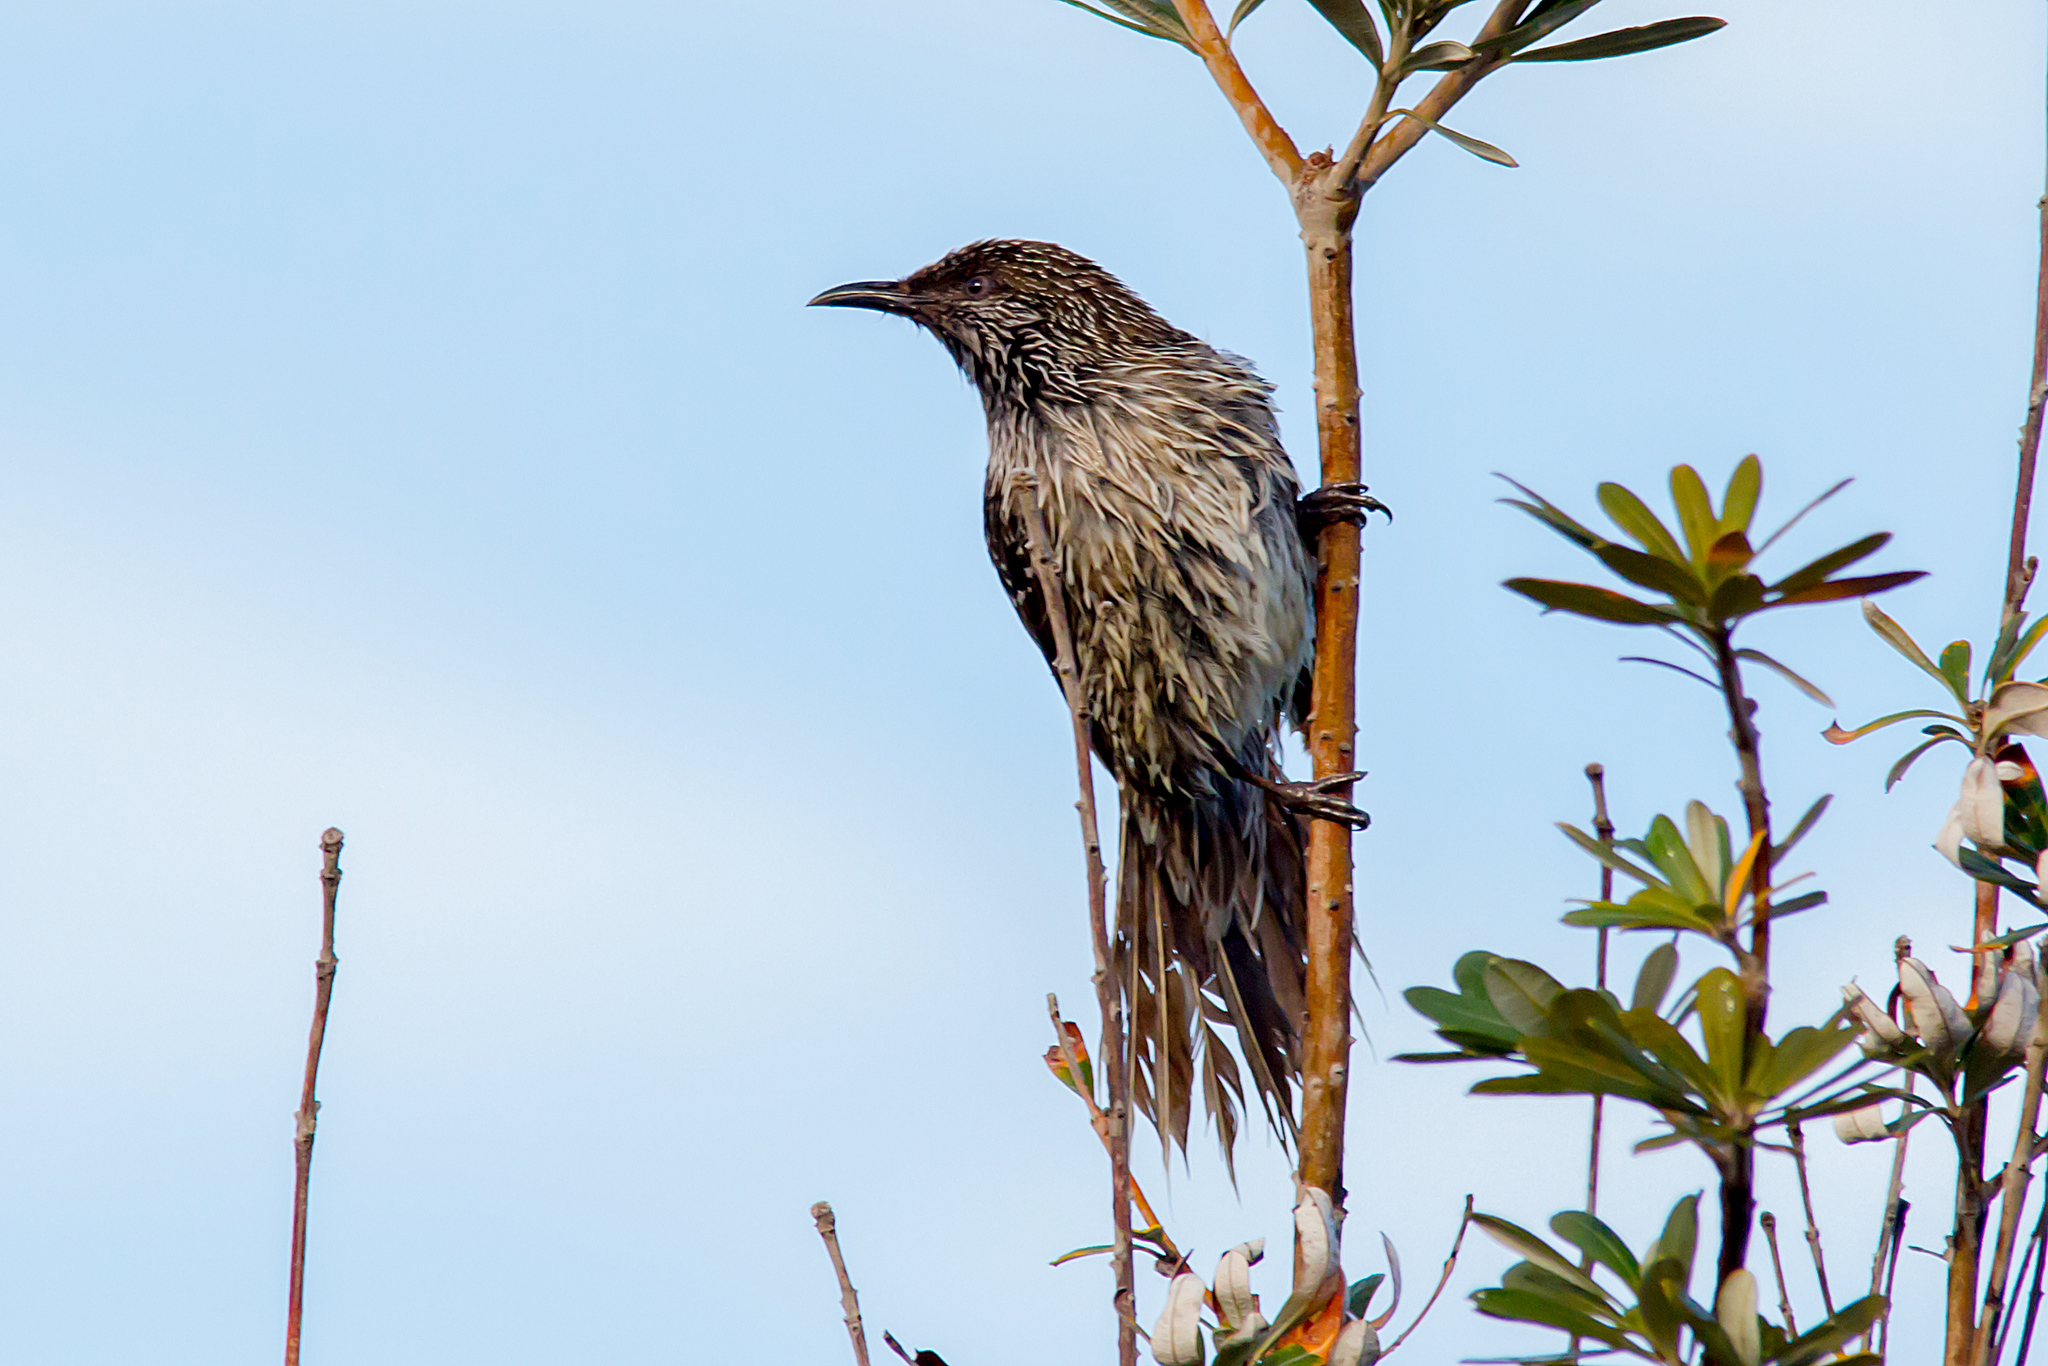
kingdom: Animalia
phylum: Chordata
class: Aves
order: Passeriformes
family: Meliphagidae
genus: Anthochaera
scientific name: Anthochaera chrysoptera
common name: Little wattlebird
